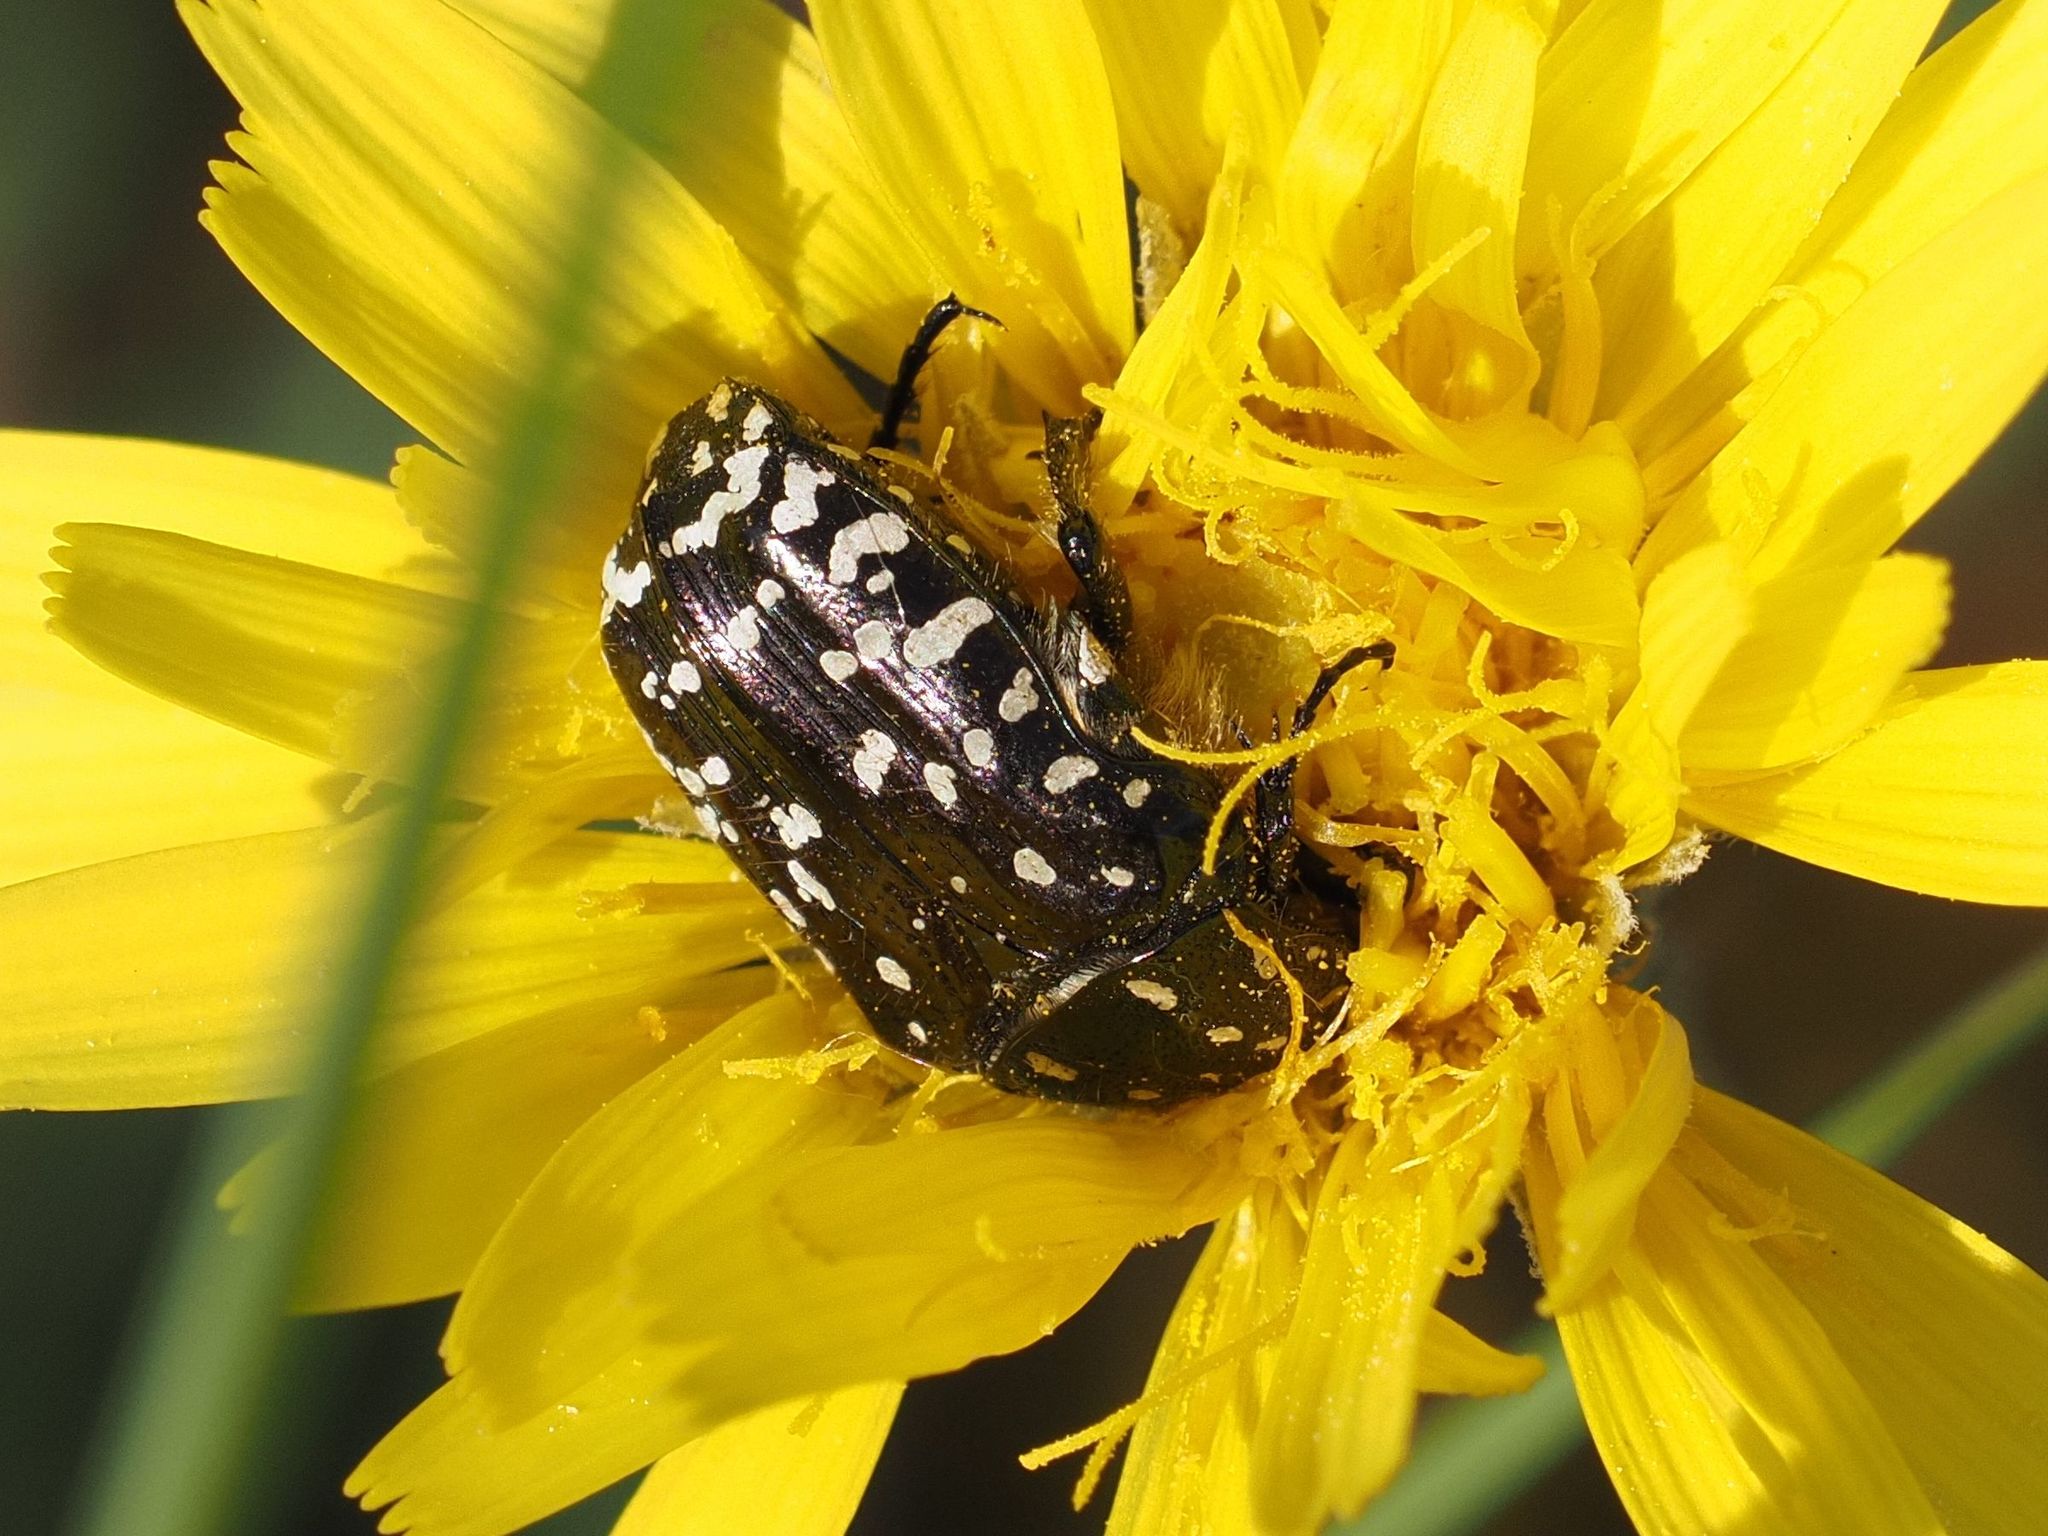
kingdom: Animalia
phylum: Arthropoda
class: Insecta
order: Coleoptera
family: Scarabaeidae
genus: Oxythyrea
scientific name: Oxythyrea funesta
